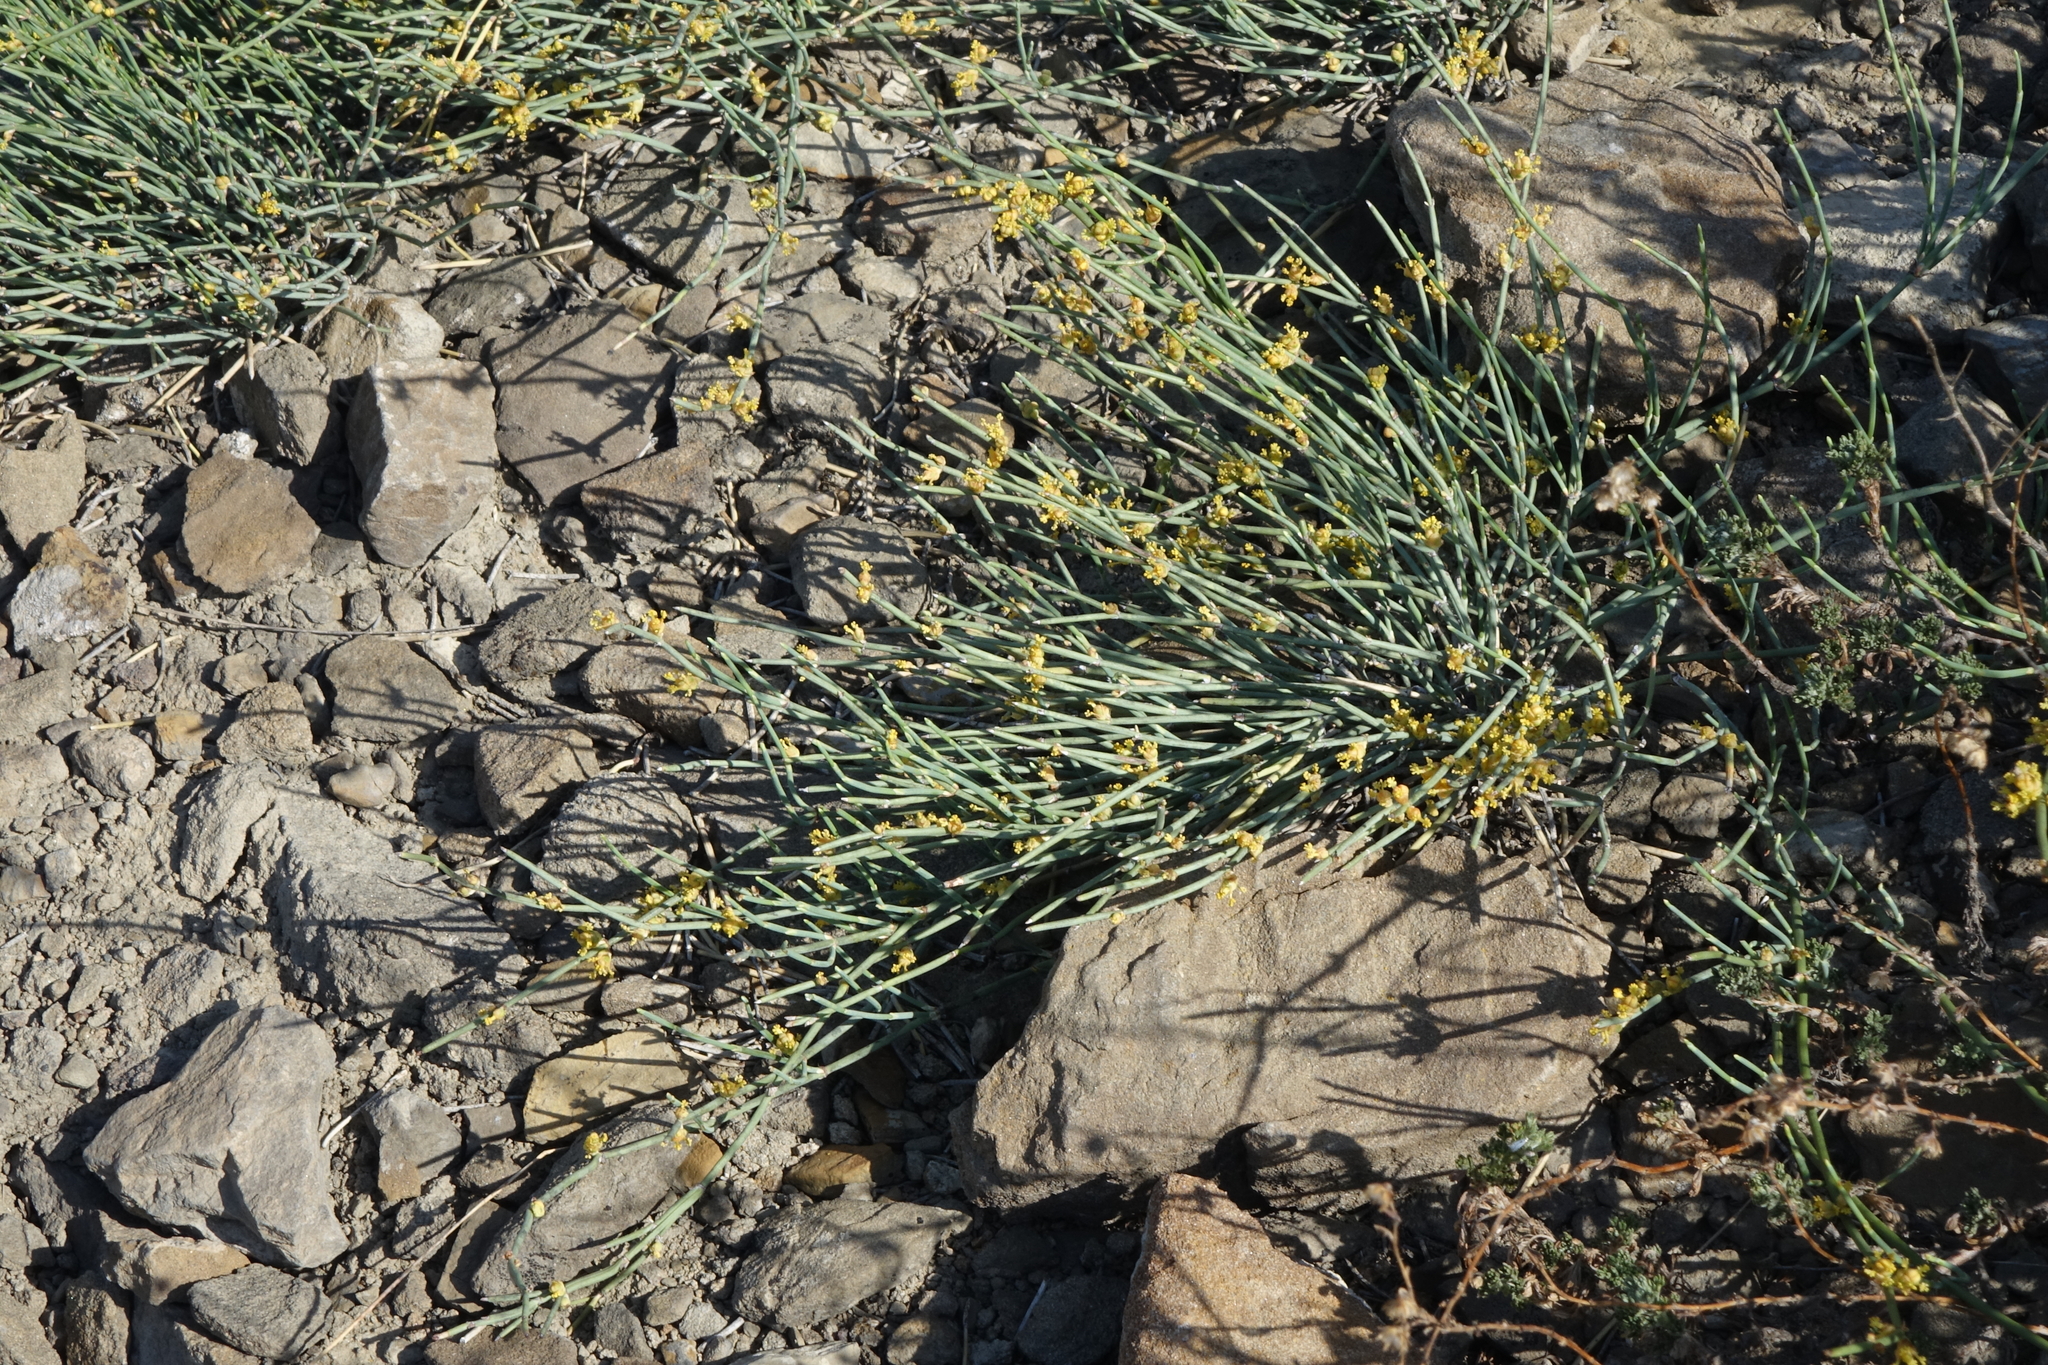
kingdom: Plantae
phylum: Tracheophyta
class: Gnetopsida
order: Ephedrales
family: Ephedraceae
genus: Ephedra
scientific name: Ephedra monosperma
